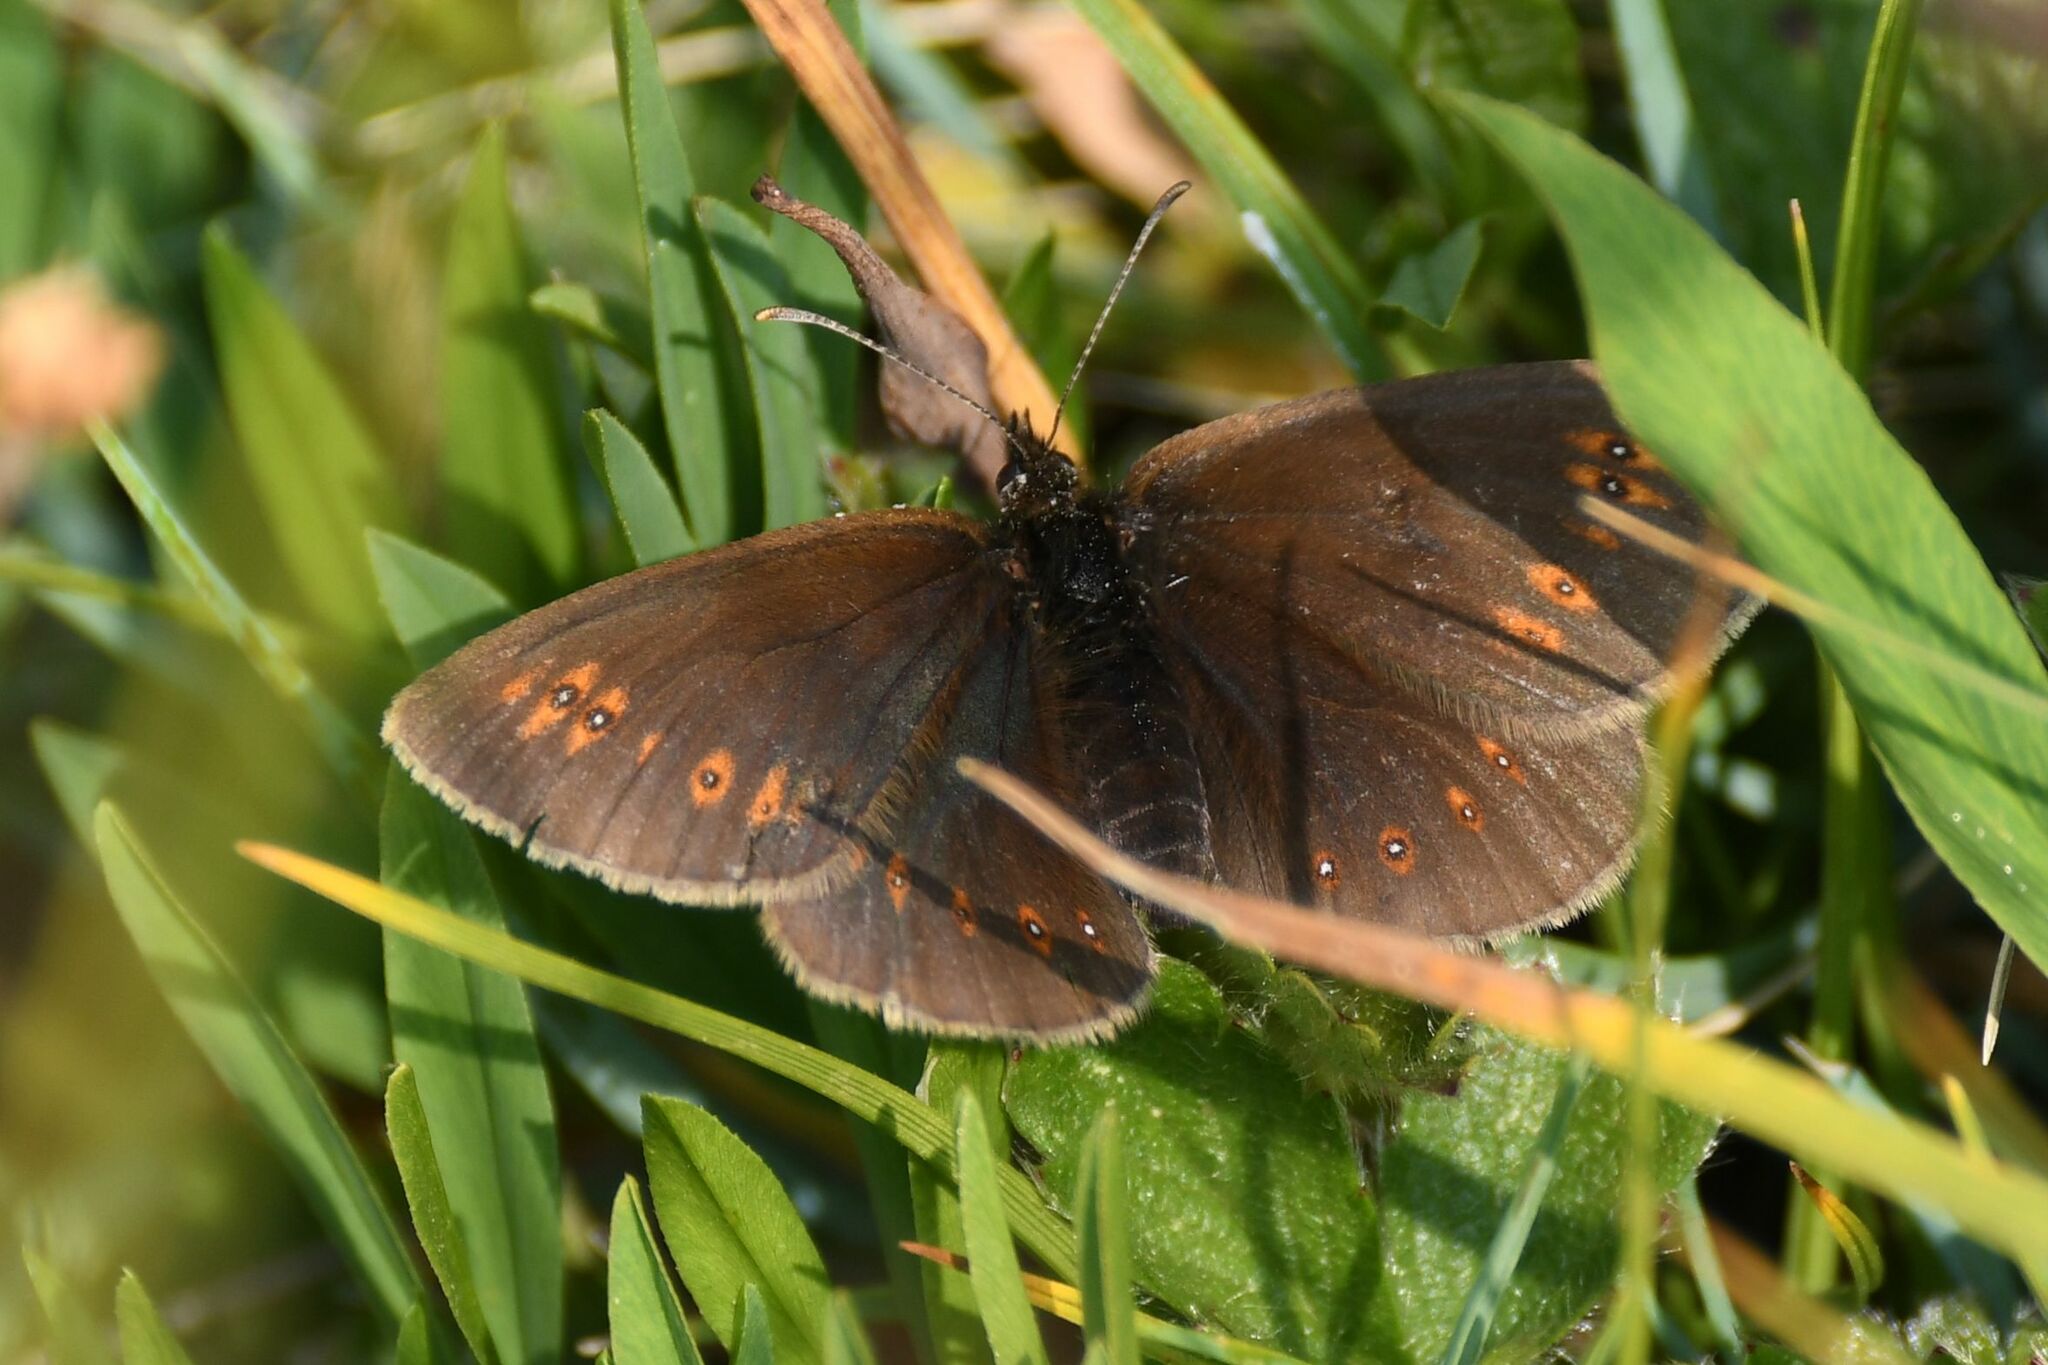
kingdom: Animalia
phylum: Arthropoda
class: Insecta
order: Lepidoptera
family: Nymphalidae
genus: Erebia
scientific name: Erebia alberganus
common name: Almond-eyed ringlet
